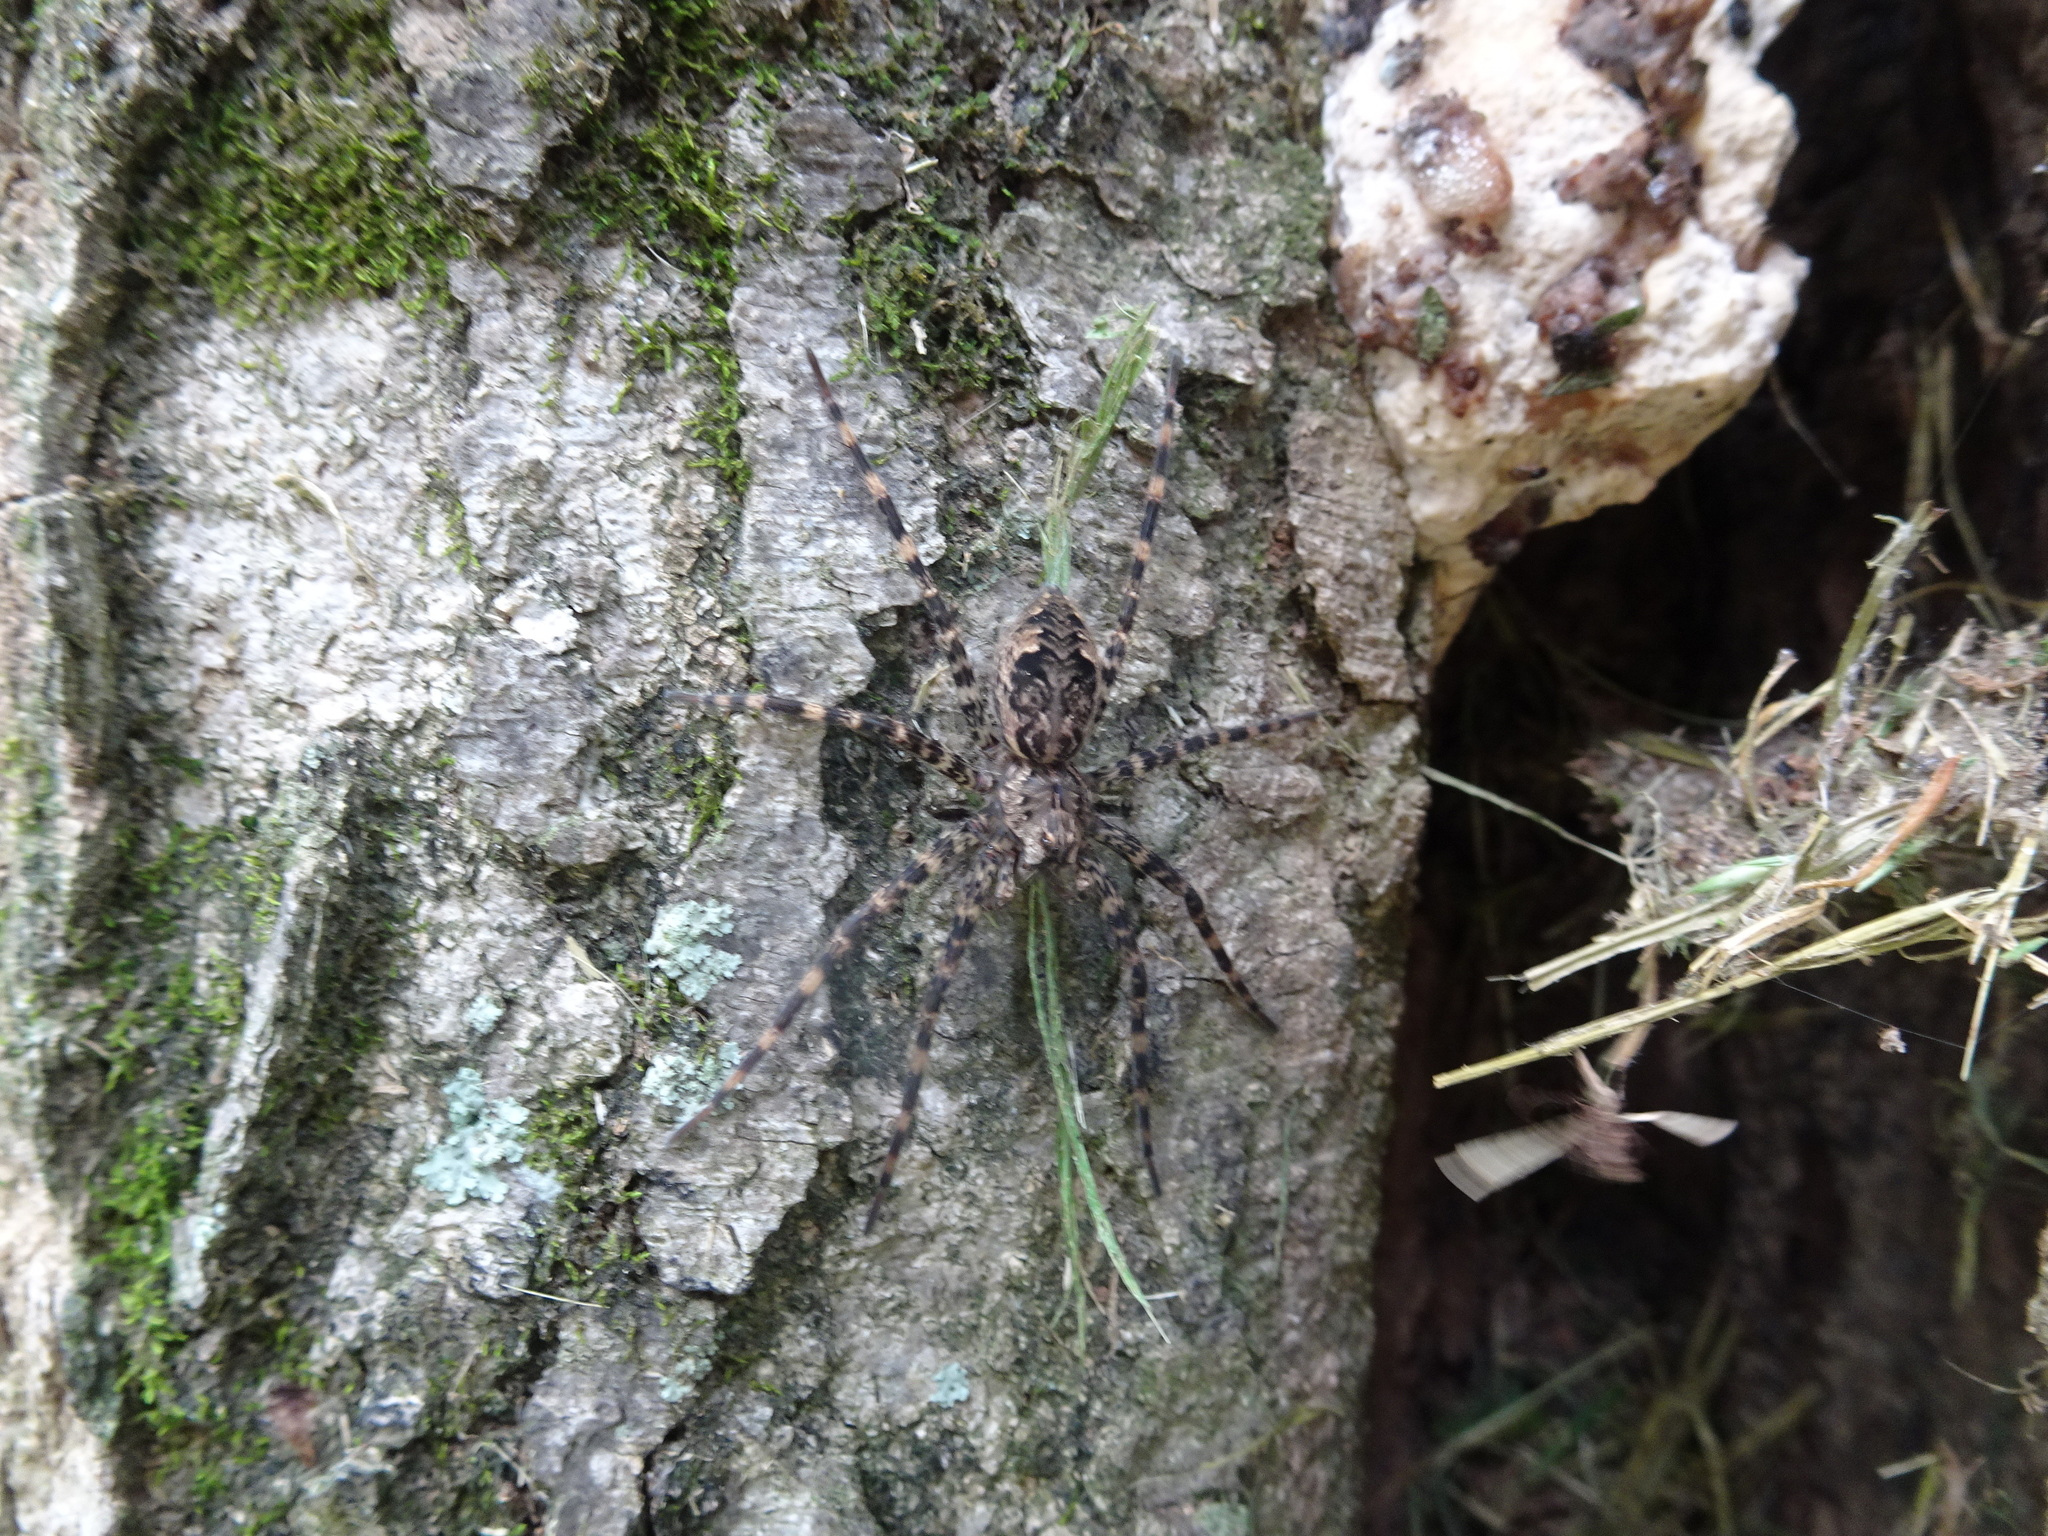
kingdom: Animalia
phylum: Arthropoda
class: Arachnida
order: Araneae
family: Pisauridae
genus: Dolomedes
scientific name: Dolomedes tenebrosus
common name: Dark fishing spider
